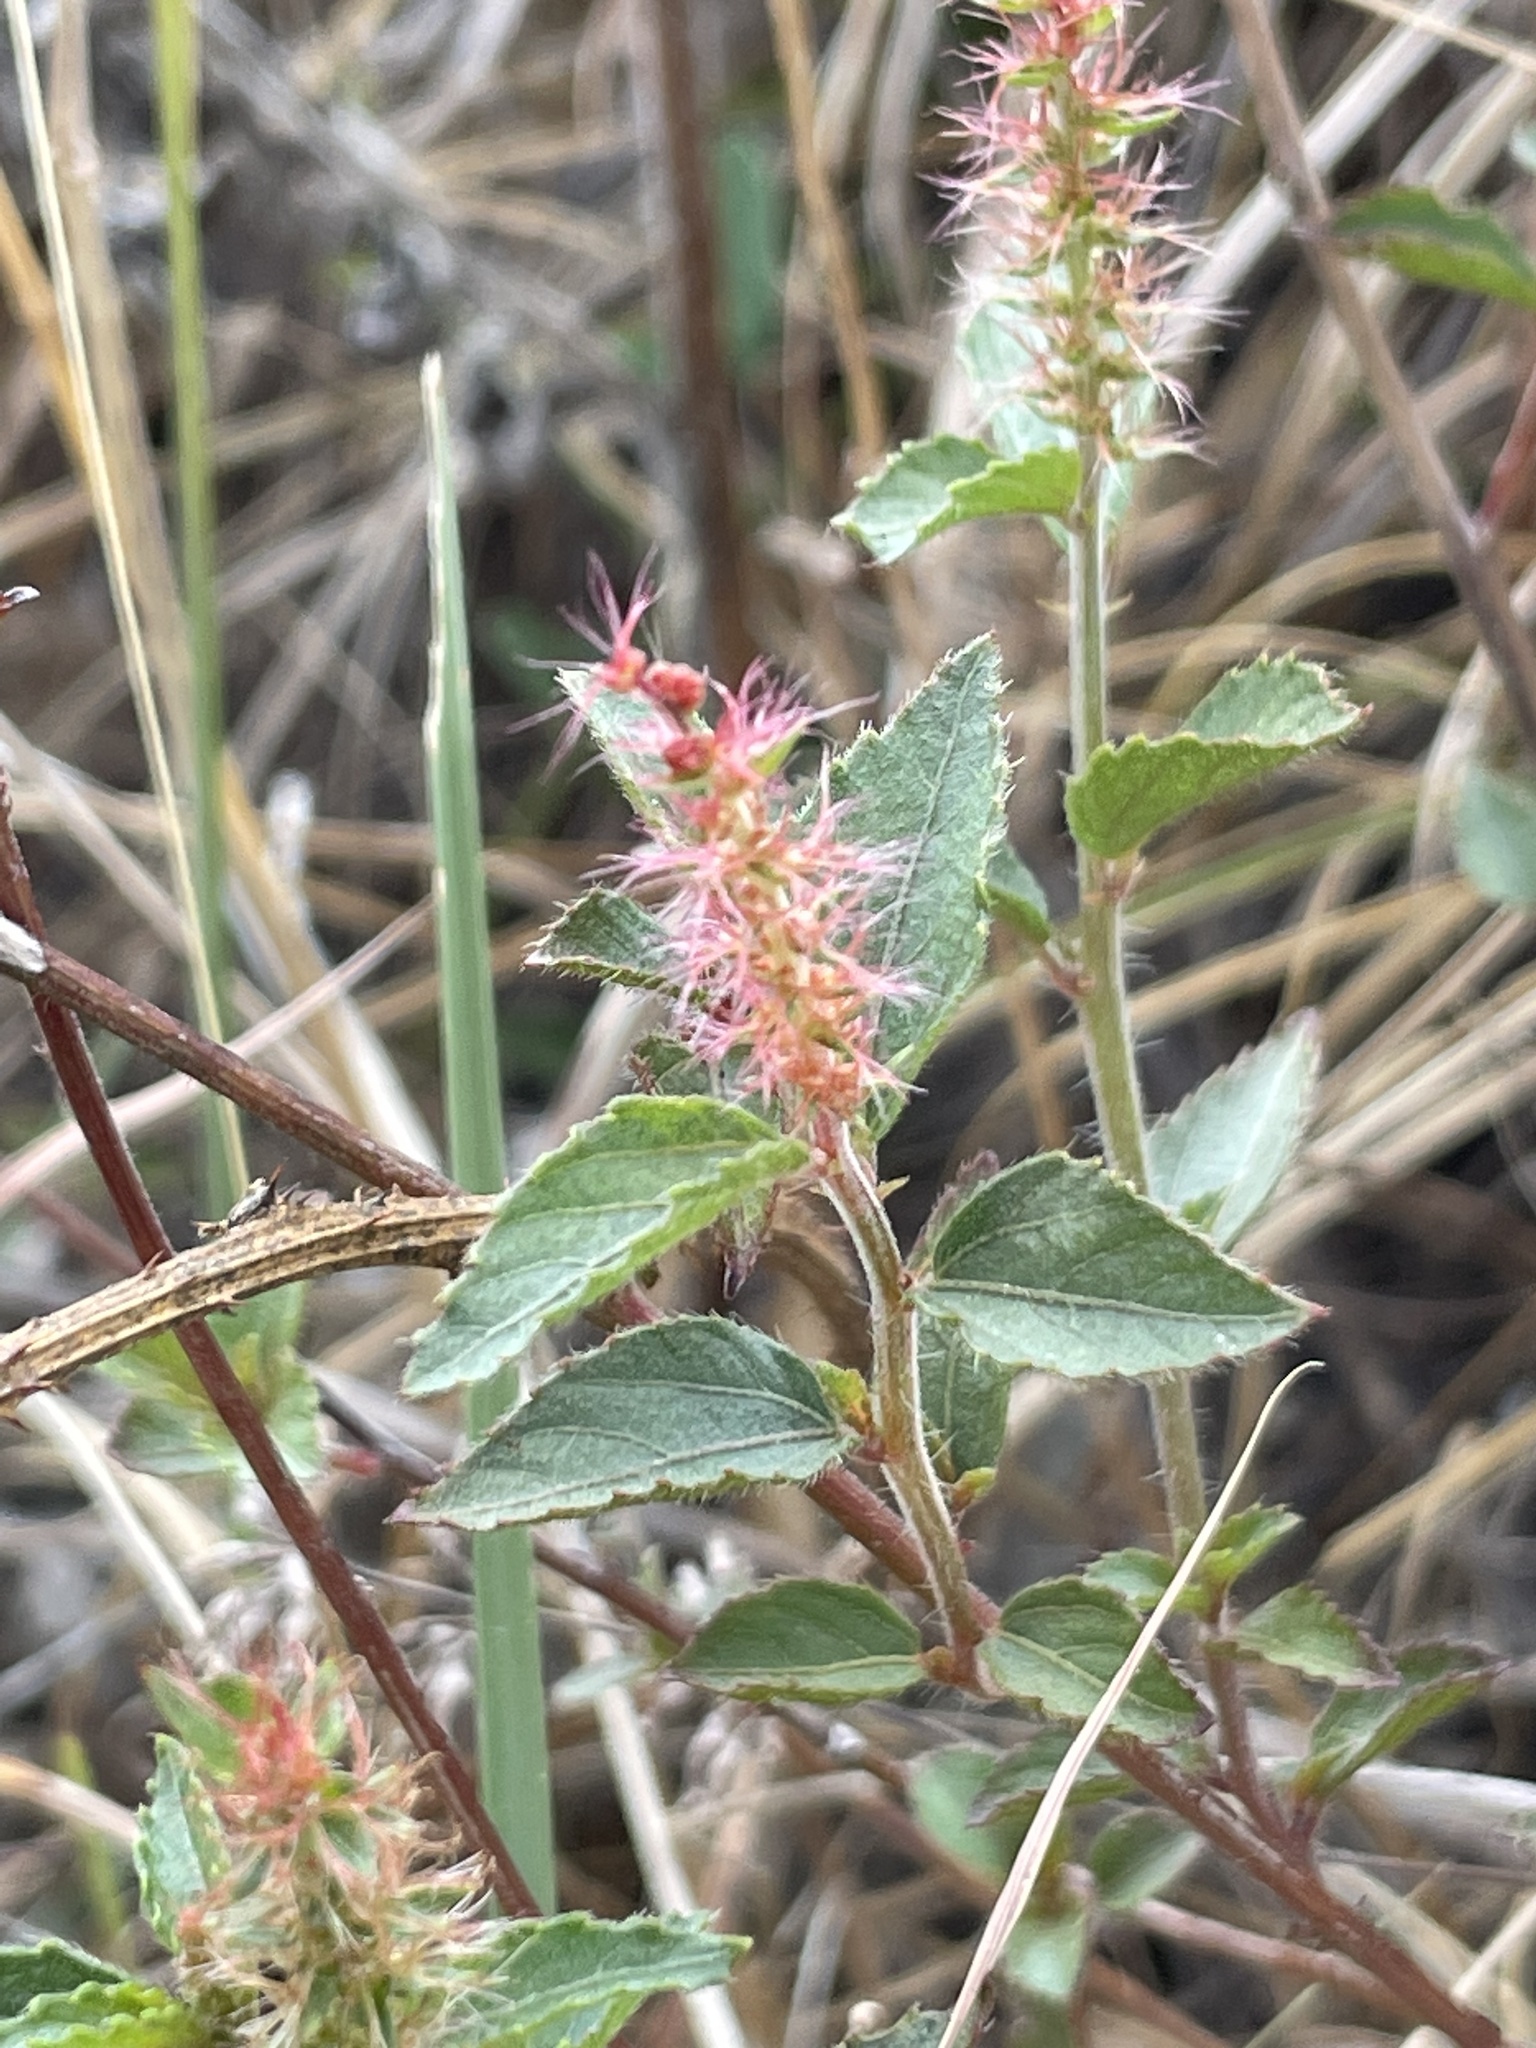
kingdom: Plantae
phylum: Tracheophyta
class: Magnoliopsida
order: Malpighiales
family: Euphorbiaceae
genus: Acalypha
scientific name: Acalypha phleoides
